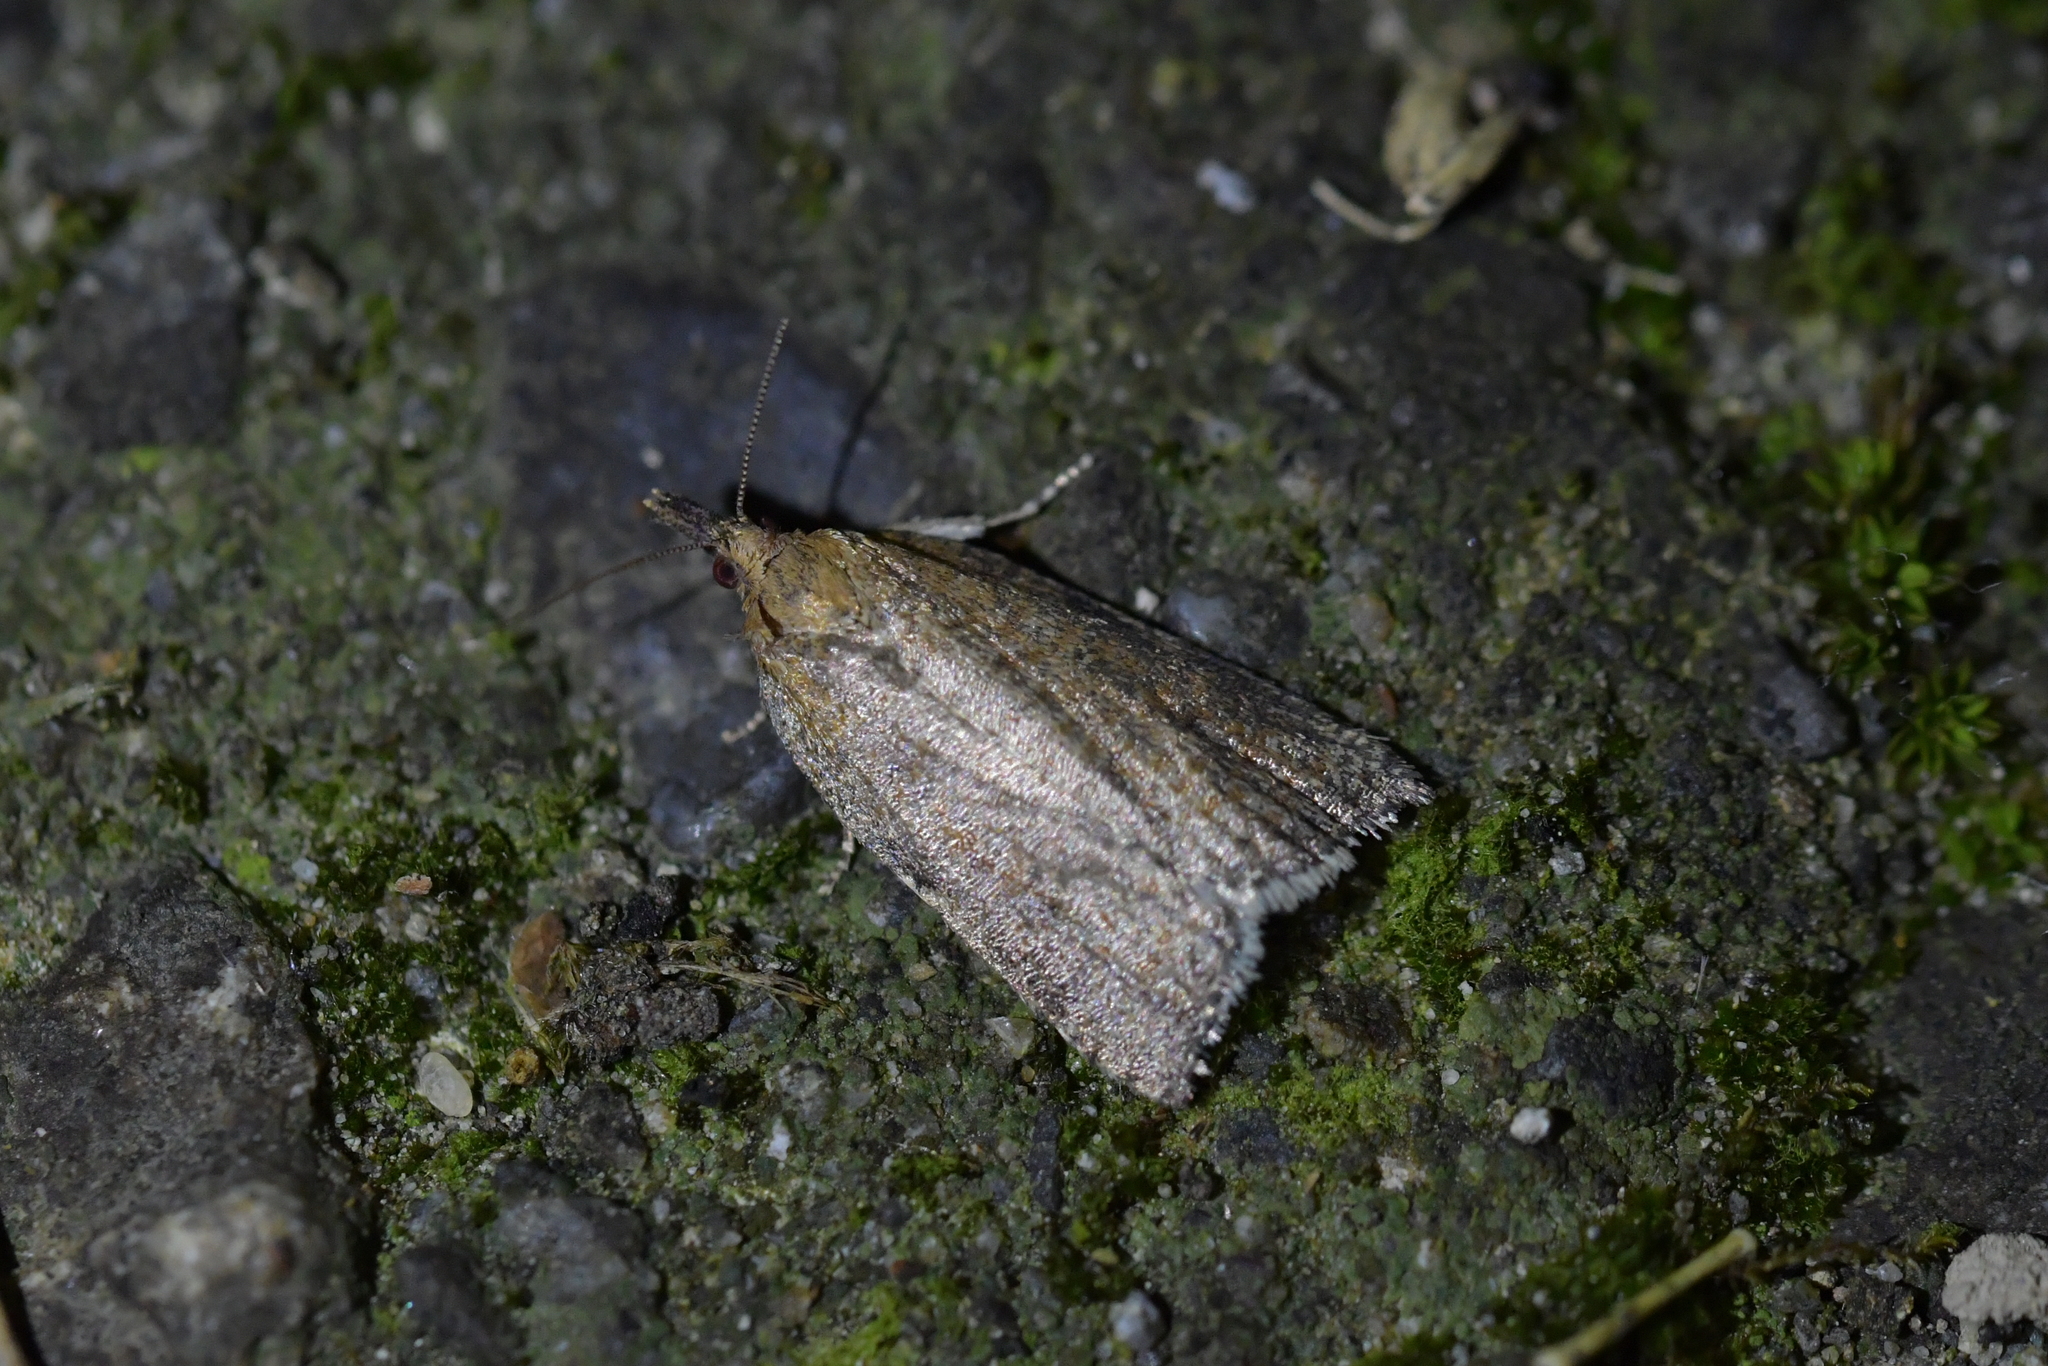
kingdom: Animalia
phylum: Arthropoda
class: Insecta
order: Lepidoptera
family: Tortricidae
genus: Catamacta
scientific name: Catamacta gavisana
